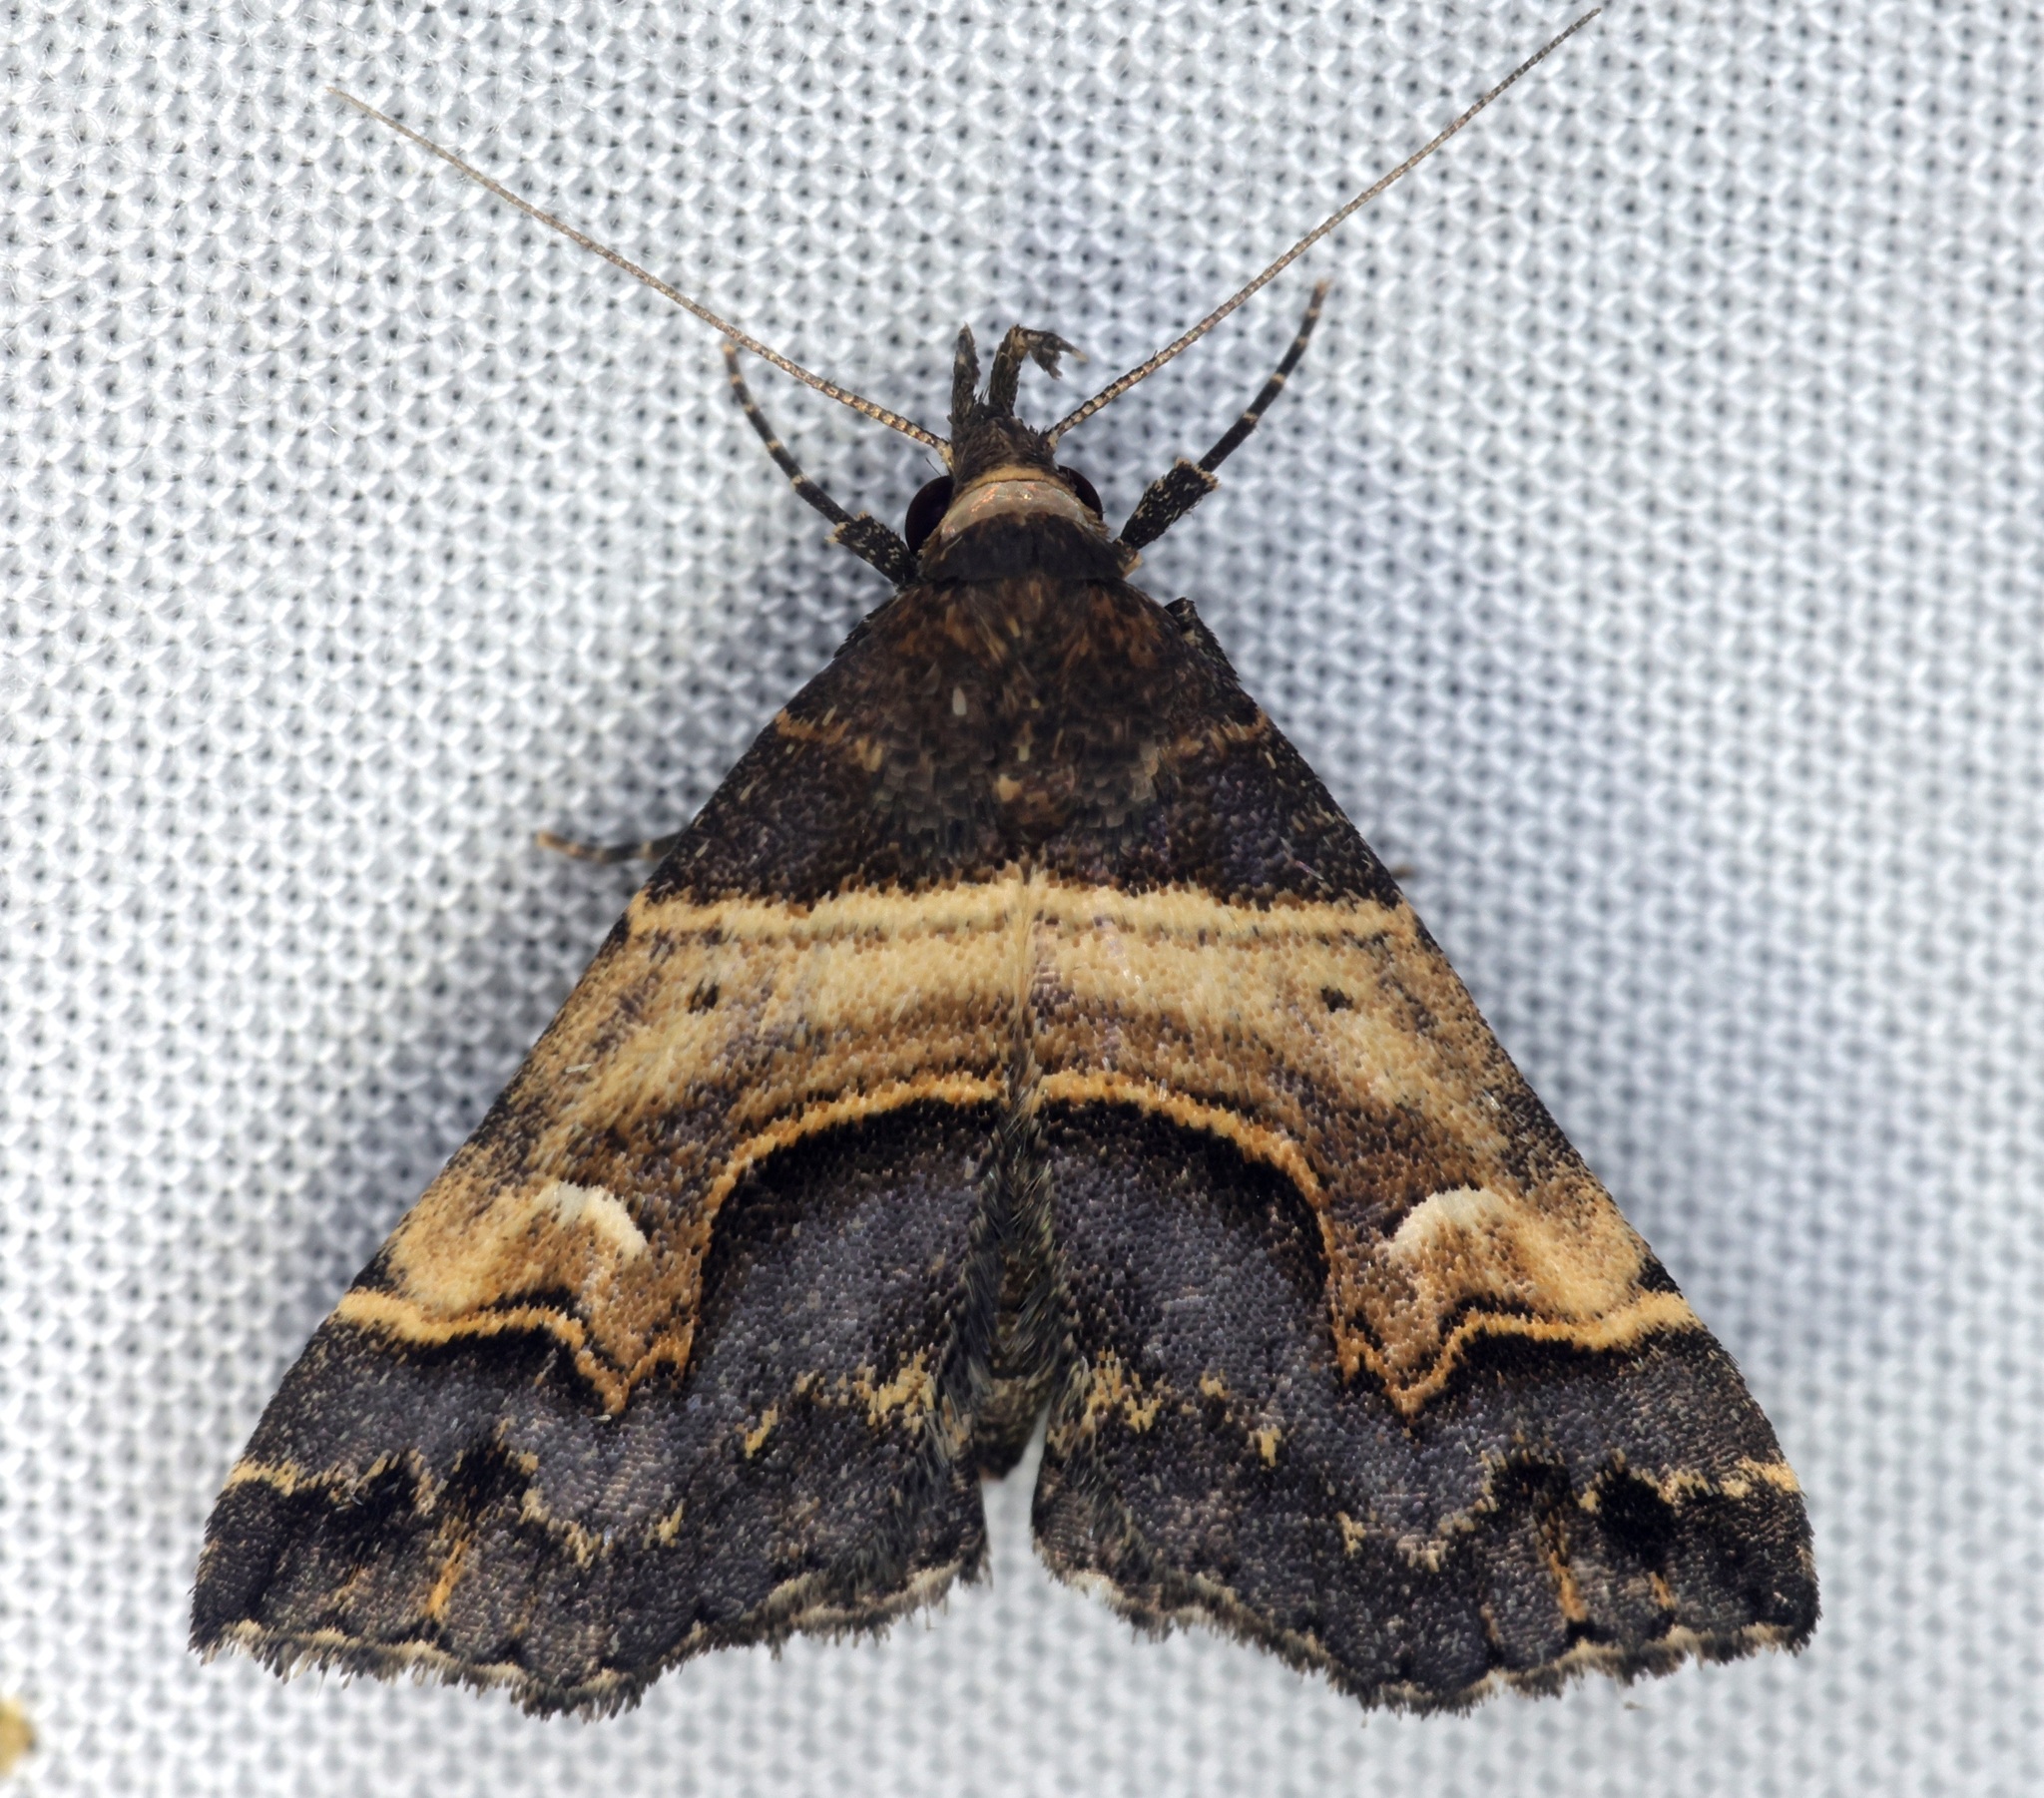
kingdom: Animalia
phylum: Arthropoda
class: Insecta
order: Lepidoptera
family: Erebidae
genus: Bertula
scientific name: Bertula abjudicalis
